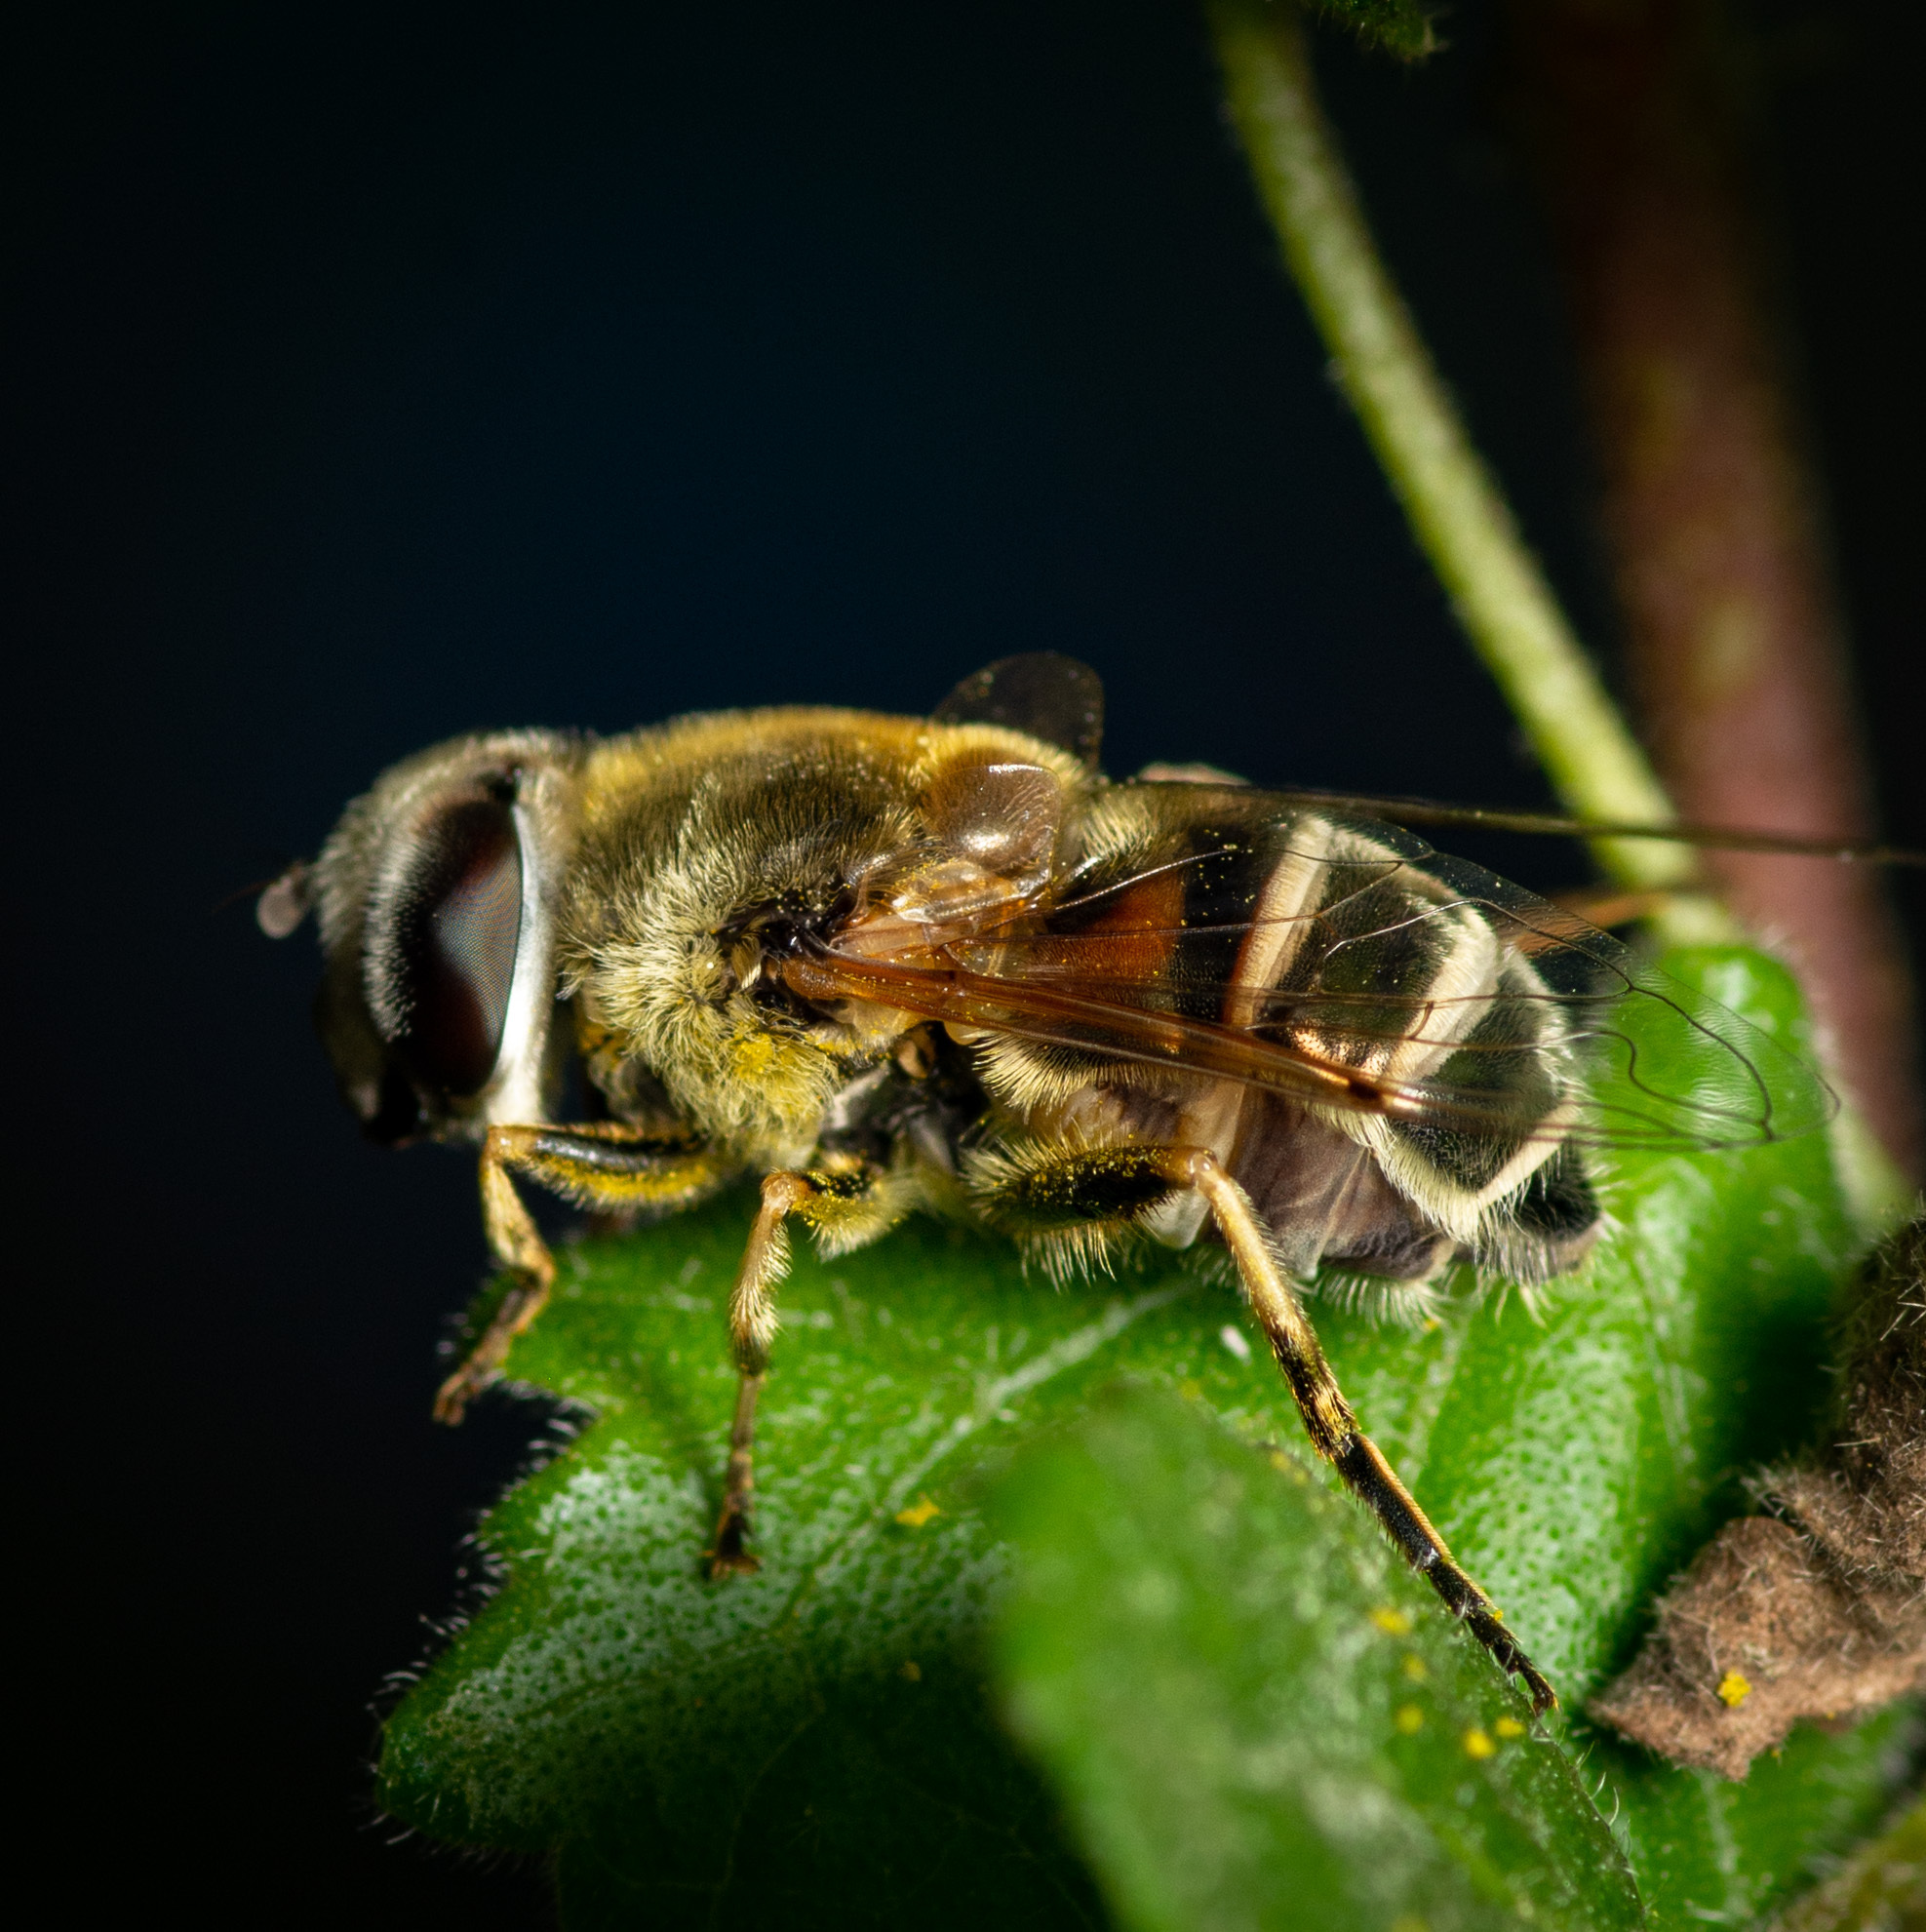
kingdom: Animalia
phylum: Arthropoda
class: Insecta
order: Diptera
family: Syrphidae
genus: Eristalis
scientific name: Eristalis stipator
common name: Yellow-shouldered drone fly
